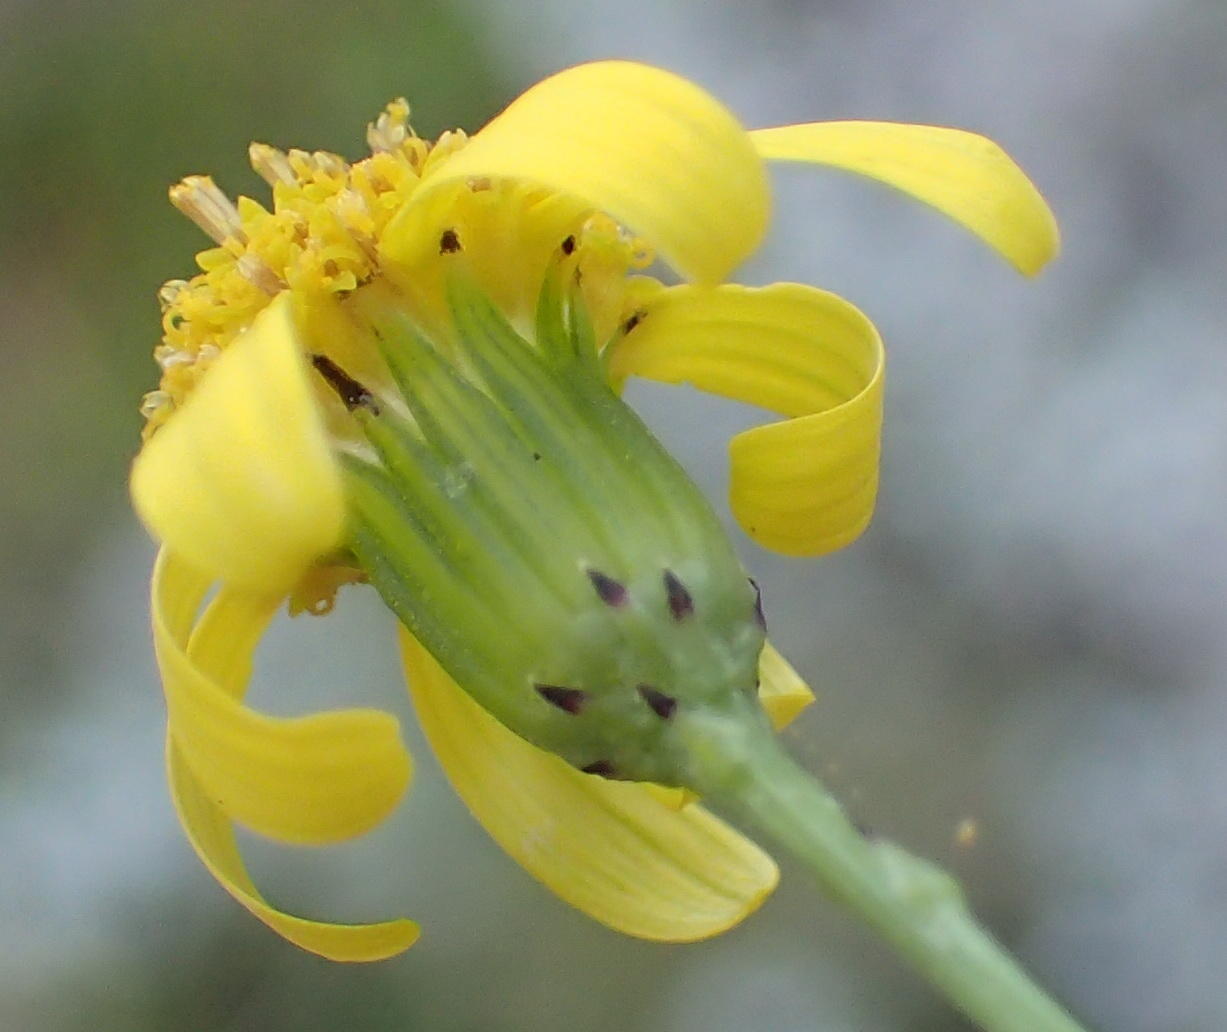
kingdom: Plantae
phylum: Tracheophyta
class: Magnoliopsida
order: Asterales
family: Asteraceae
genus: Senecio
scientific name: Senecio burchellii
